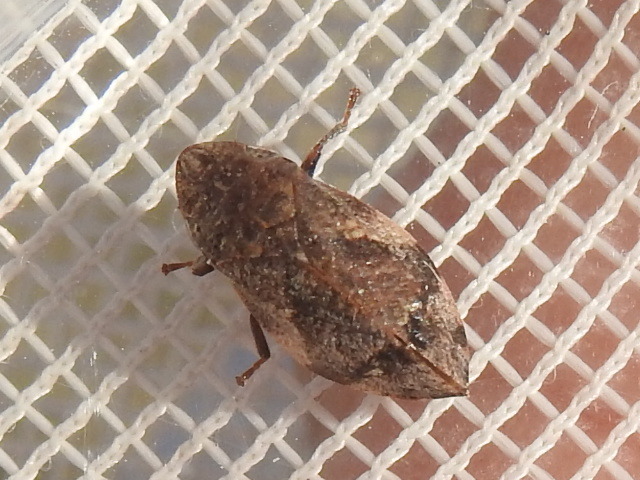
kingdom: Animalia
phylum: Arthropoda
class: Insecta
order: Hemiptera
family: Aphrophoridae
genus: Lepyronia
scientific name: Lepyronia quadrangularis
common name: Diamond-backed spittlebug
